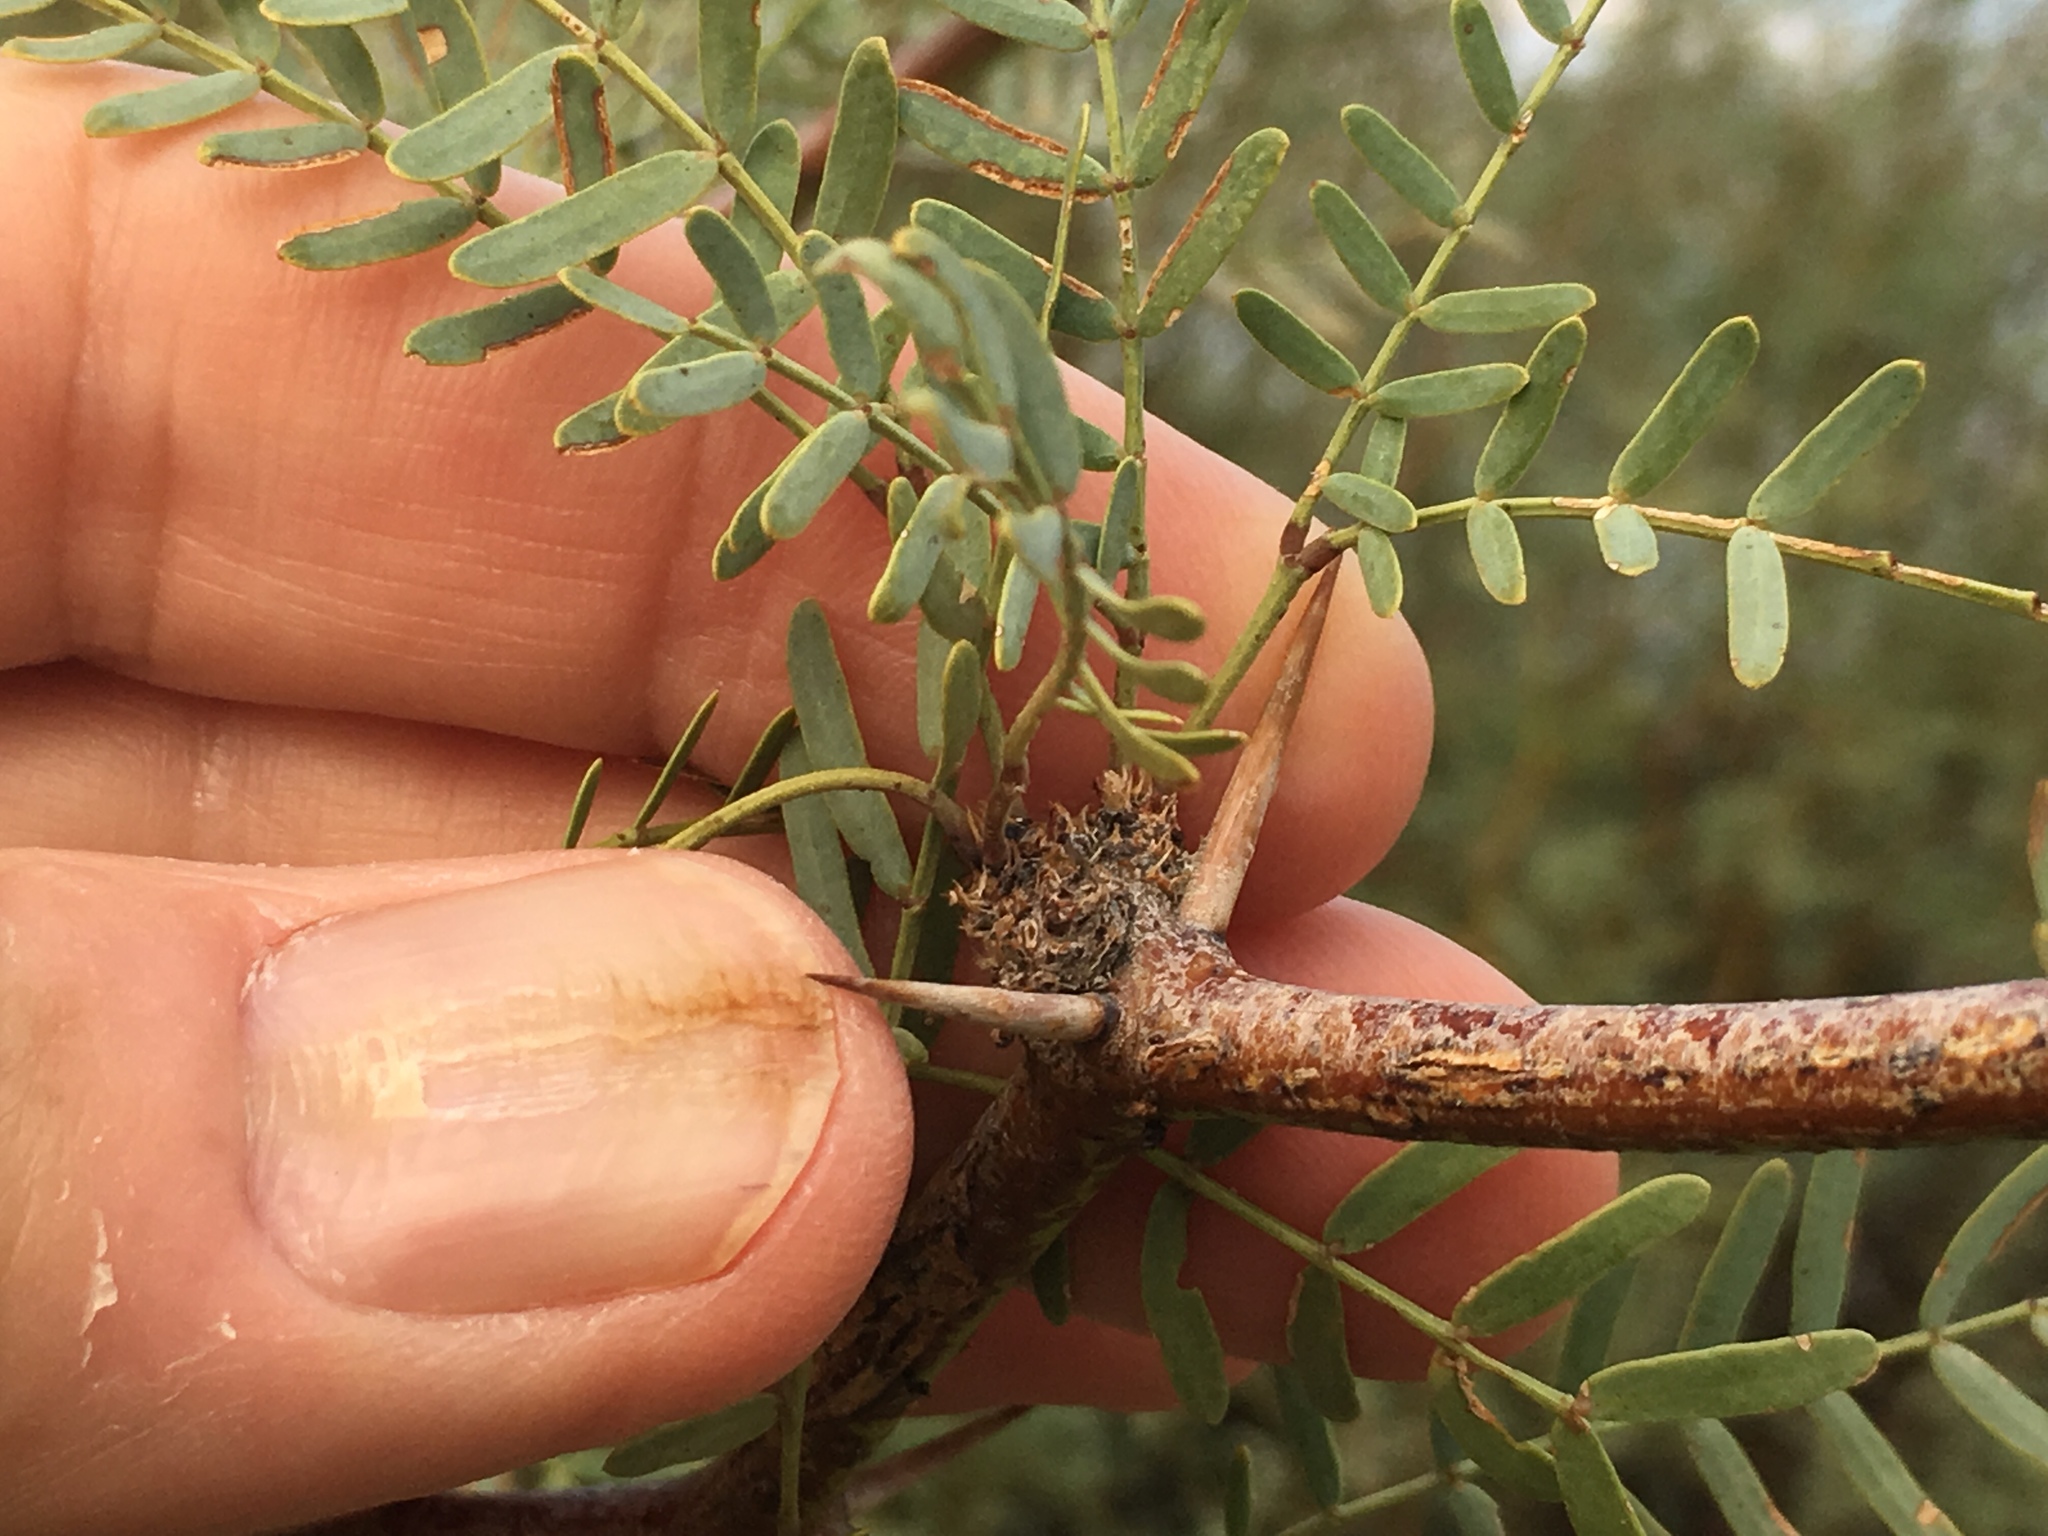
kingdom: Plantae
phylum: Tracheophyta
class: Magnoliopsida
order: Fabales
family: Fabaceae
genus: Prosopis
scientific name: Prosopis pubescens
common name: Screw-bean
